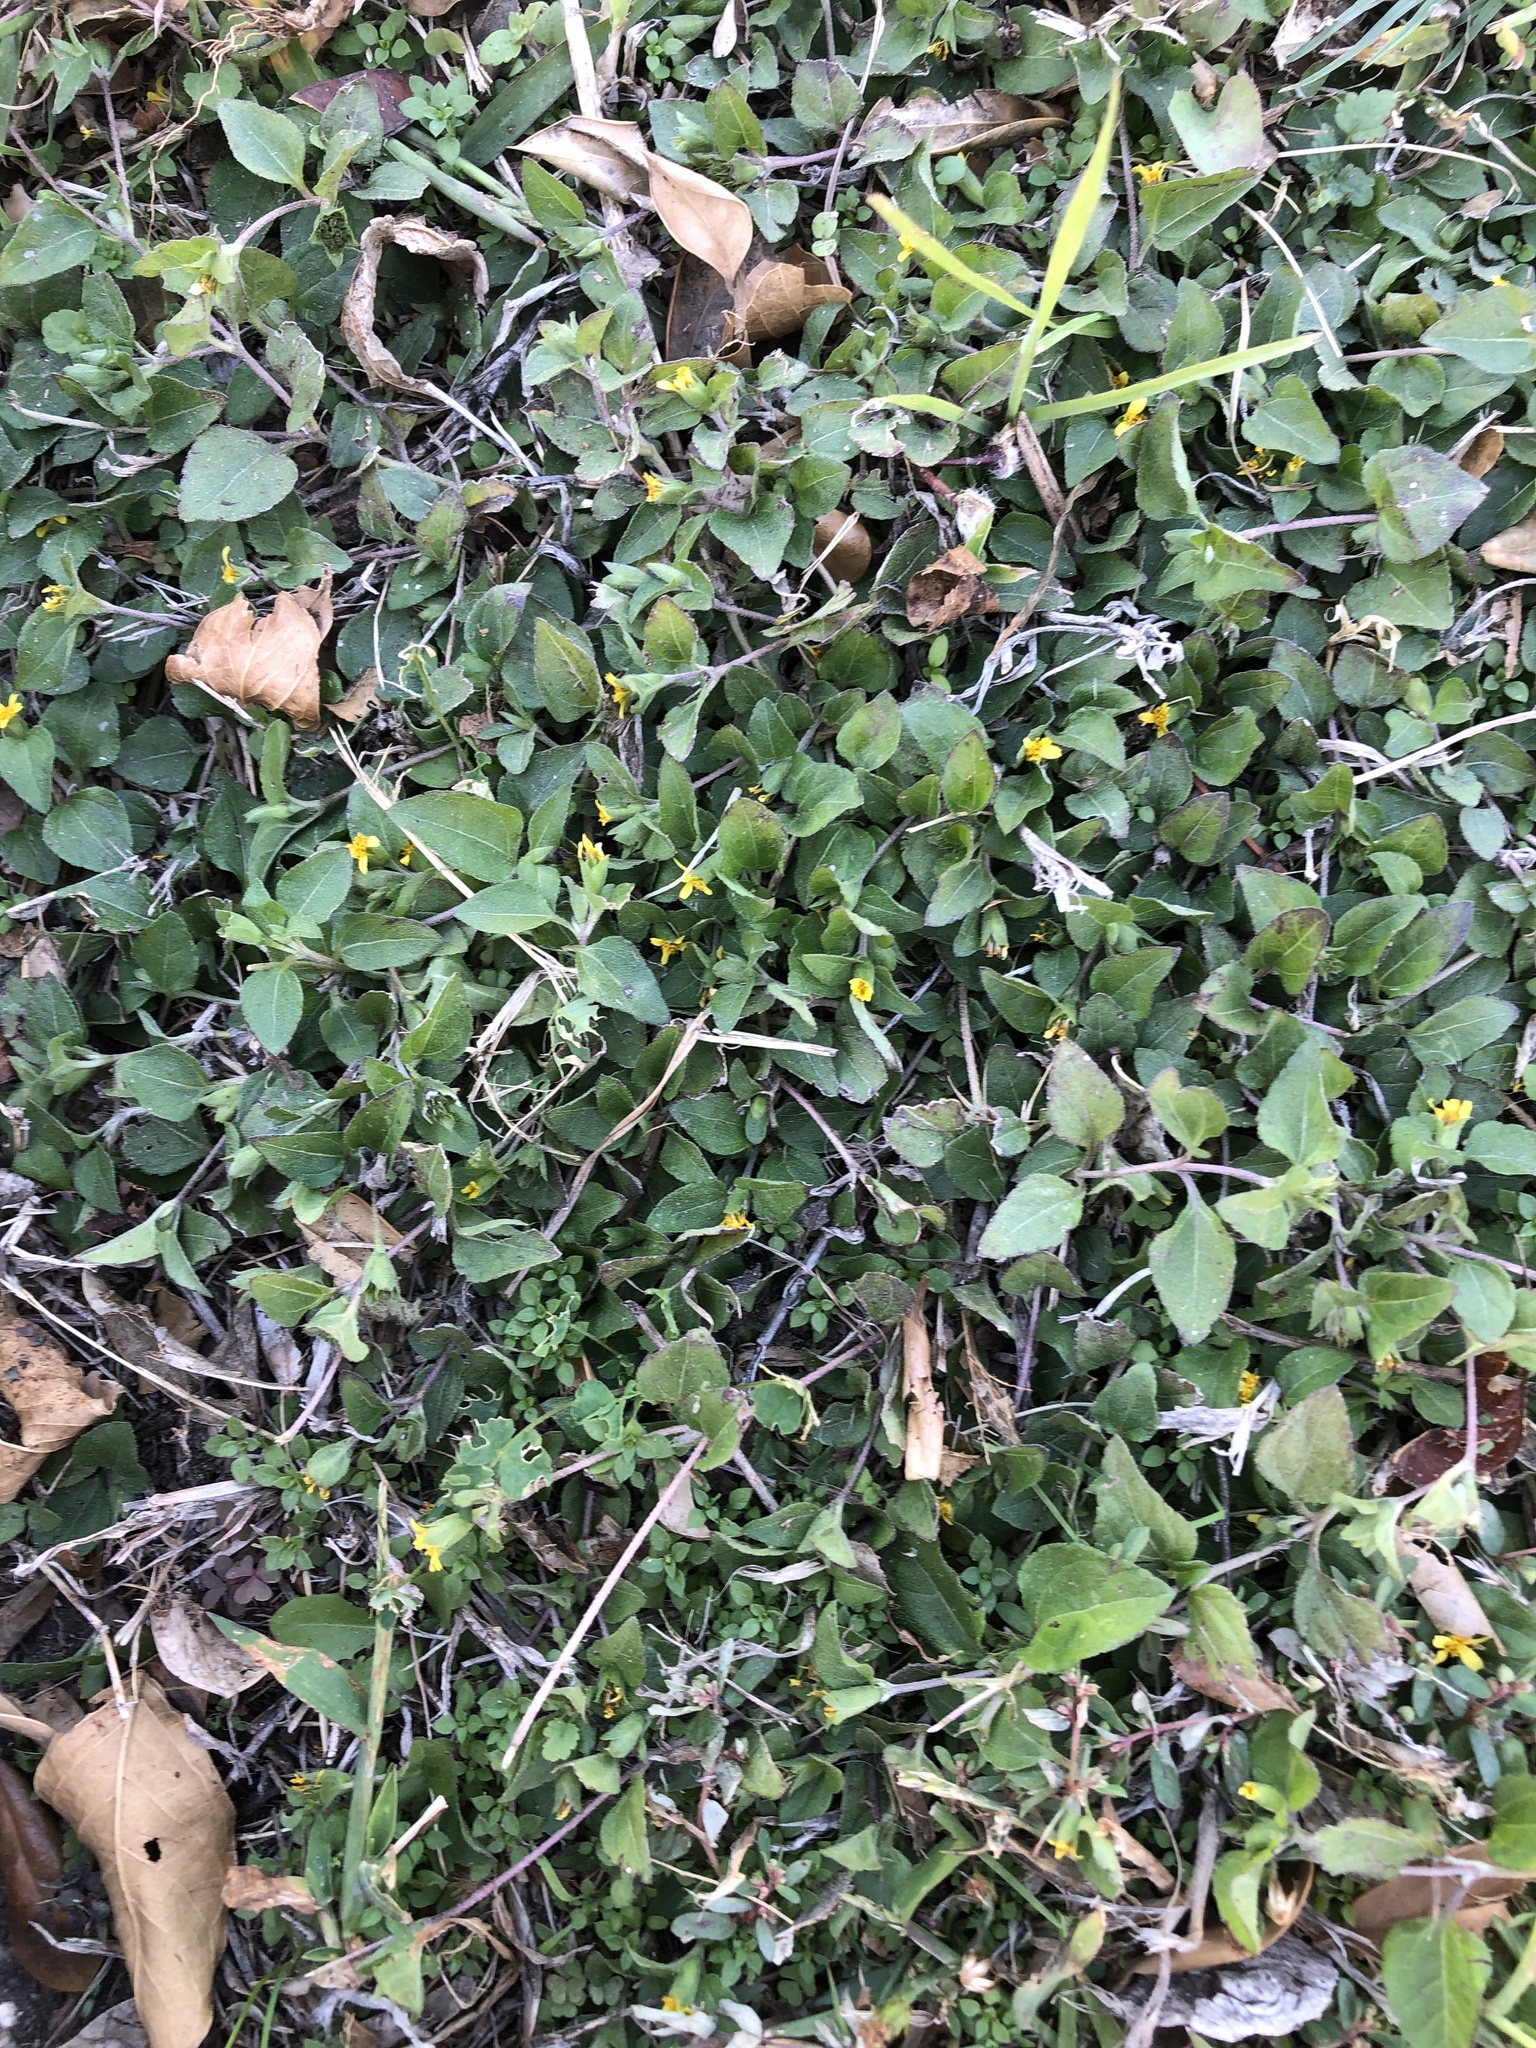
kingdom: Plantae
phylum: Tracheophyta
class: Magnoliopsida
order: Asterales
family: Asteraceae
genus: Calyptocarpus
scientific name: Calyptocarpus vialis
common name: Straggler daisy
